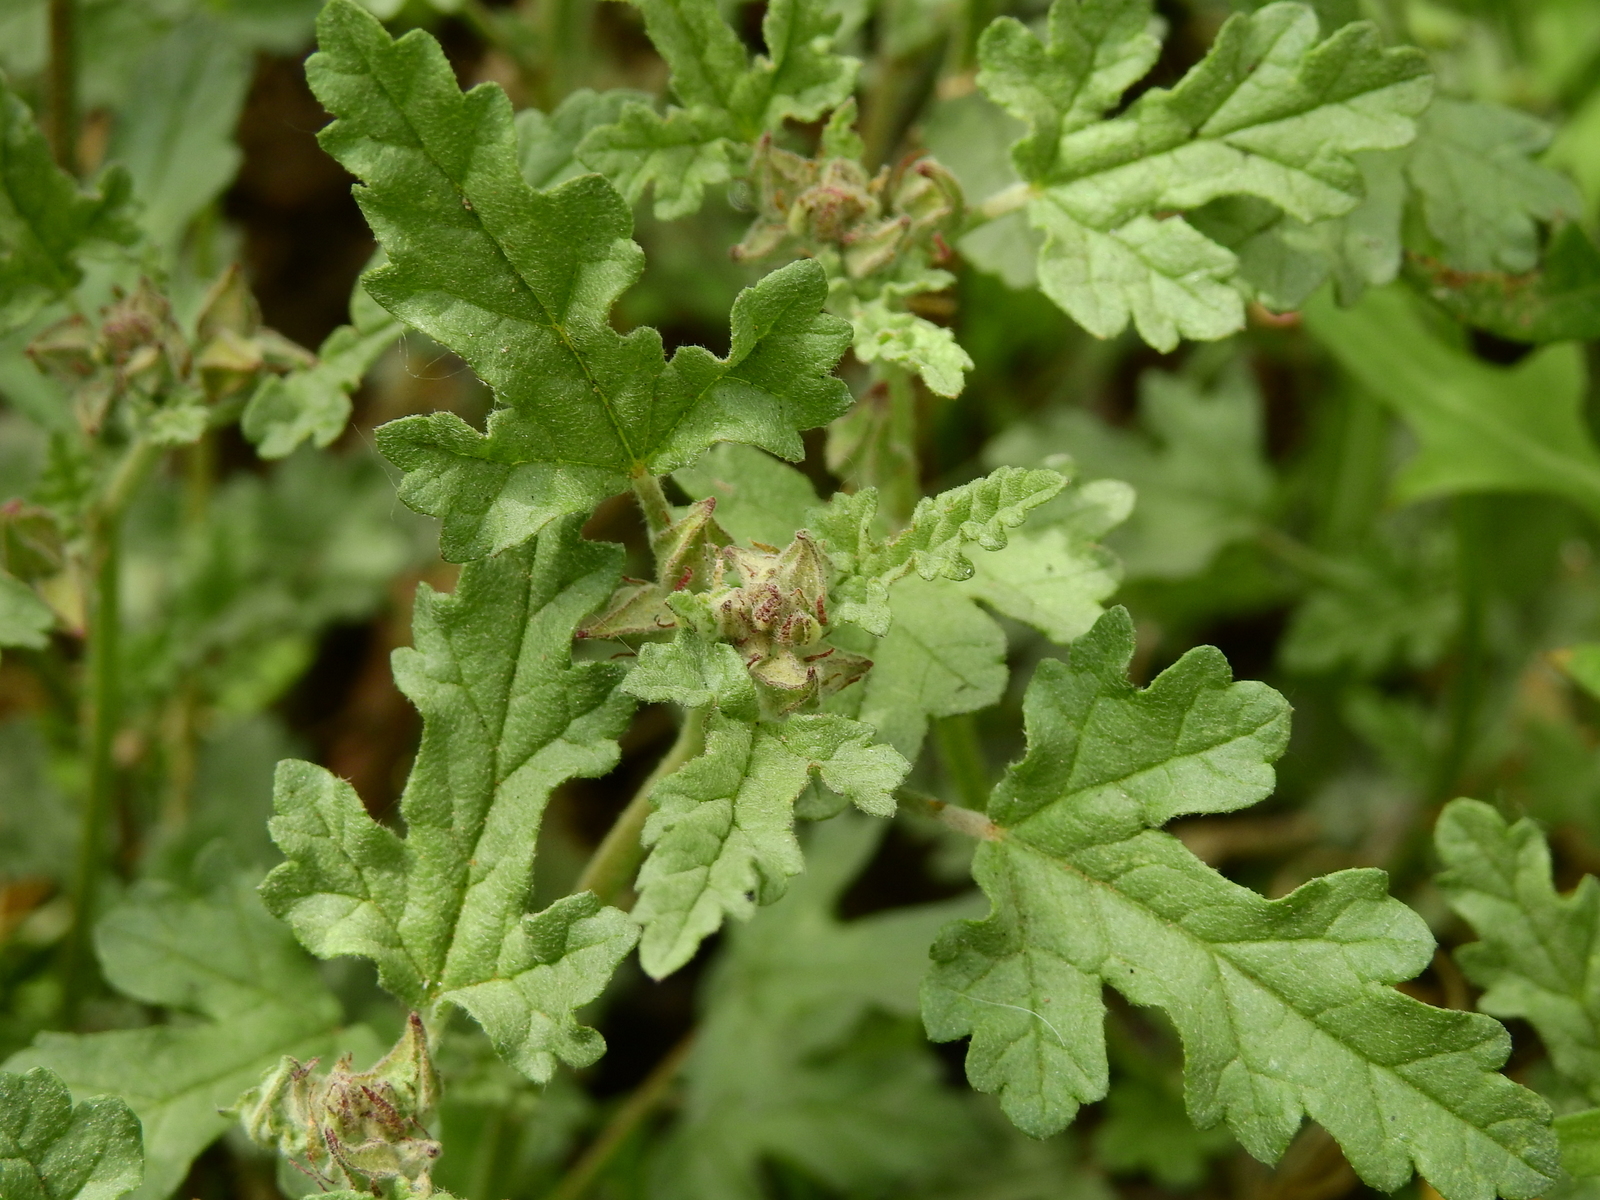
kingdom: Plantae
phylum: Tracheophyta
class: Magnoliopsida
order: Malvales
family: Malvaceae
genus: Sphaeralcea
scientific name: Sphaeralcea miniata
